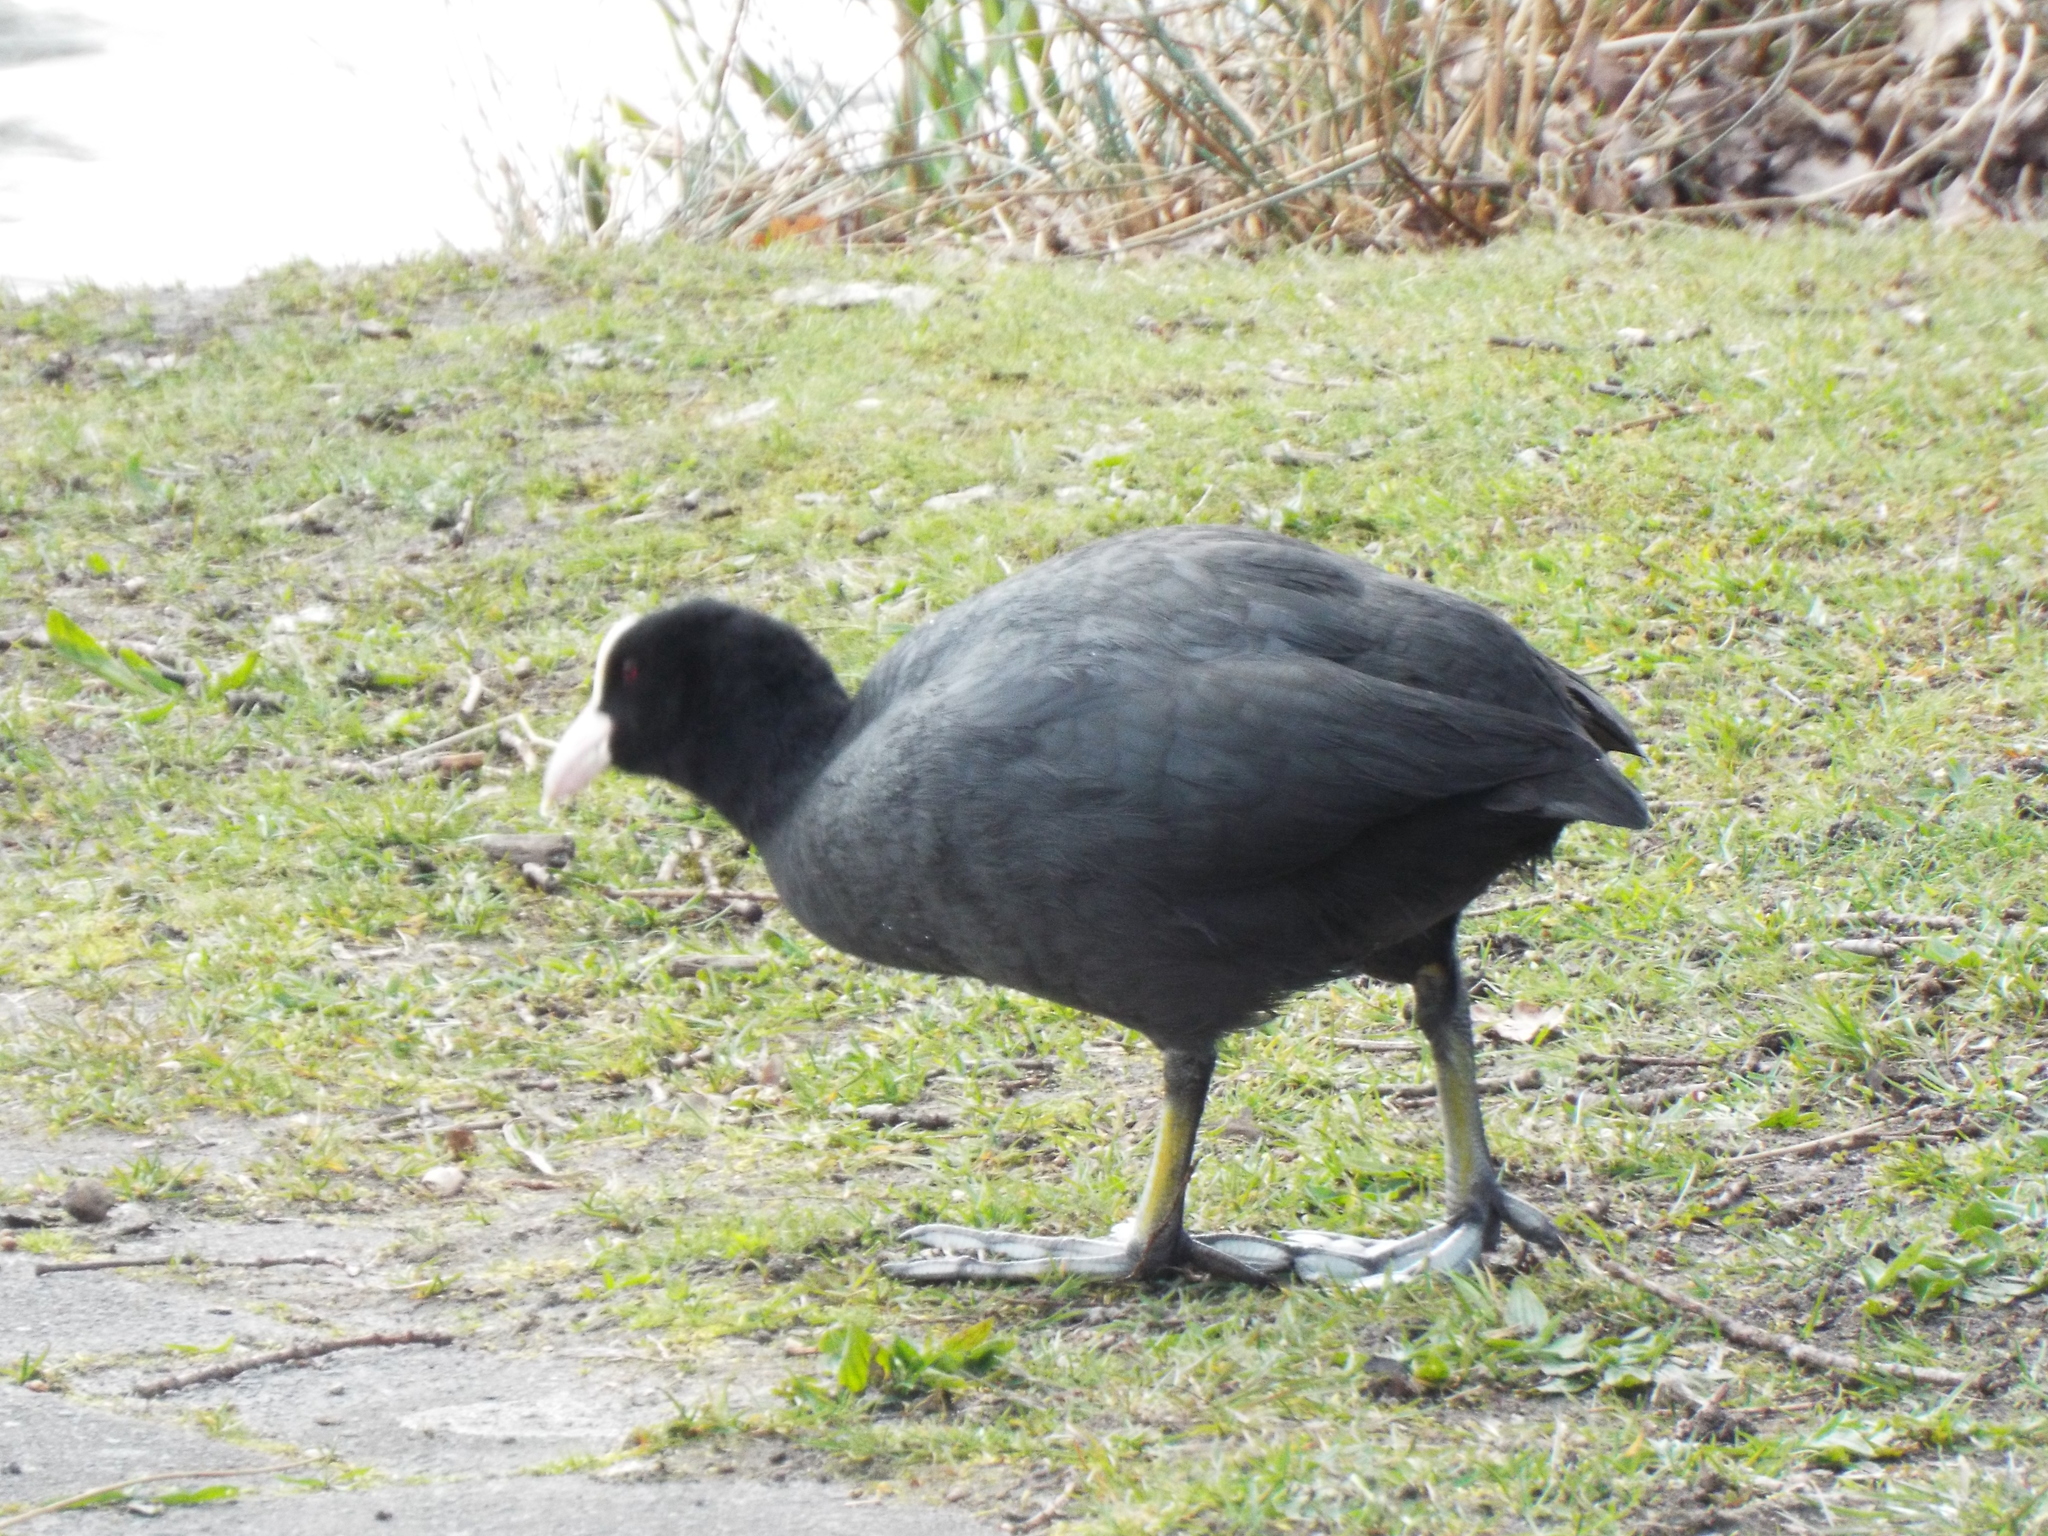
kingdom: Animalia
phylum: Chordata
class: Aves
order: Gruiformes
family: Rallidae
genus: Fulica
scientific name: Fulica atra
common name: Eurasian coot
